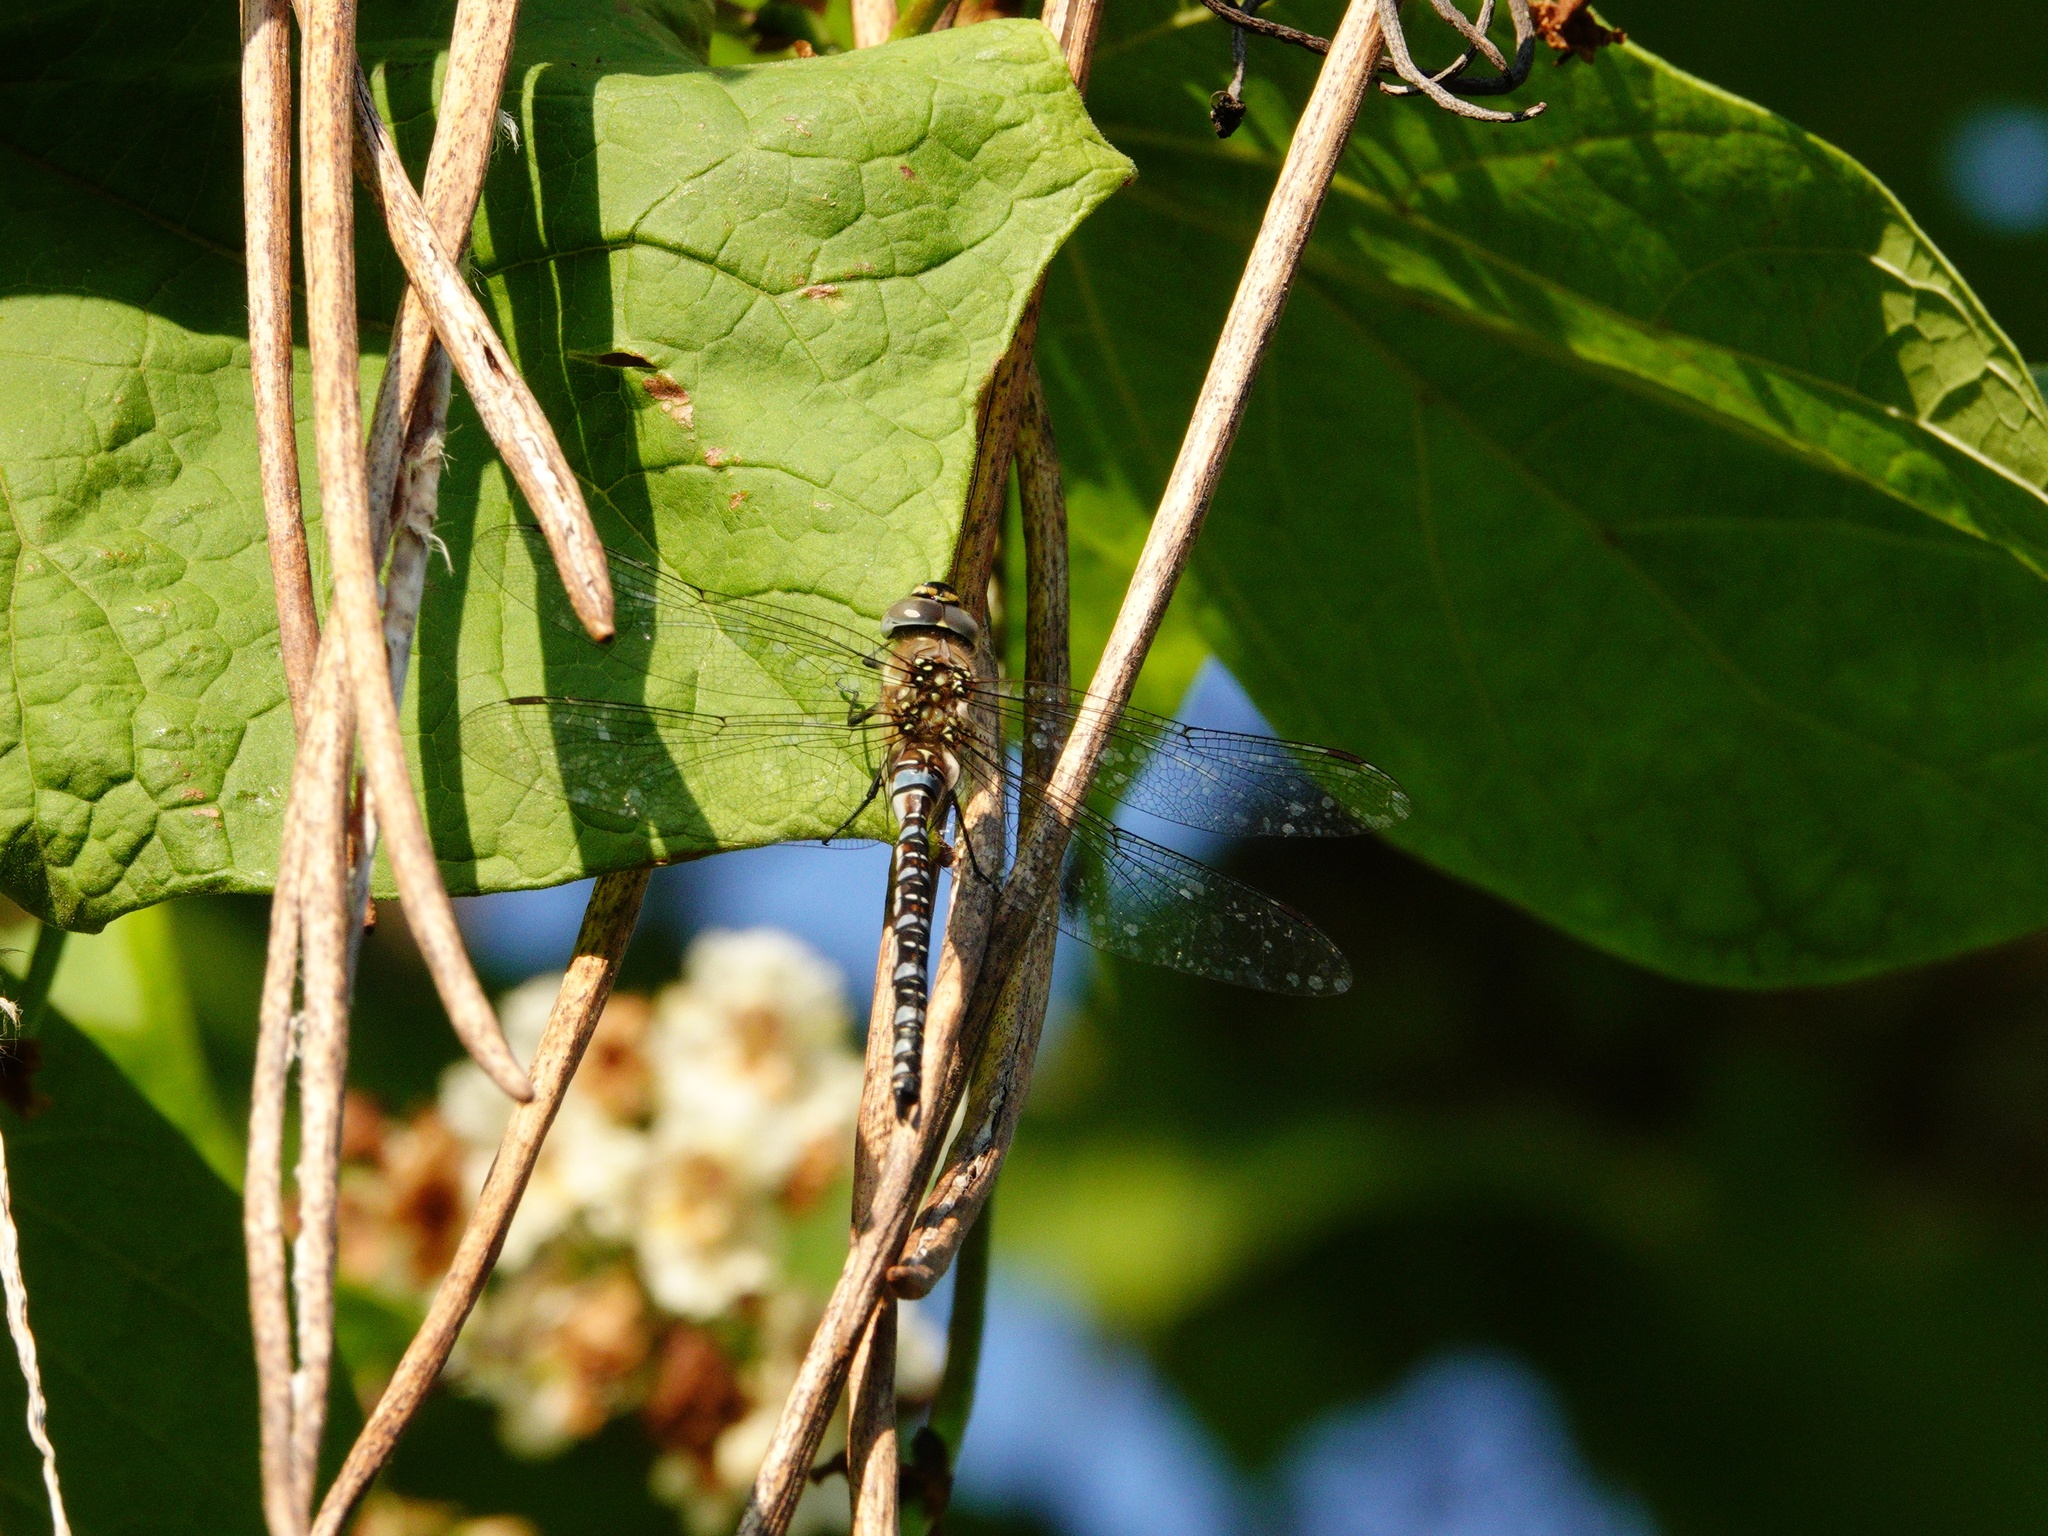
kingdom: Animalia
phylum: Arthropoda
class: Insecta
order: Odonata
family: Aeshnidae
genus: Aeshna
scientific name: Aeshna mixta
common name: Migrant hawker
